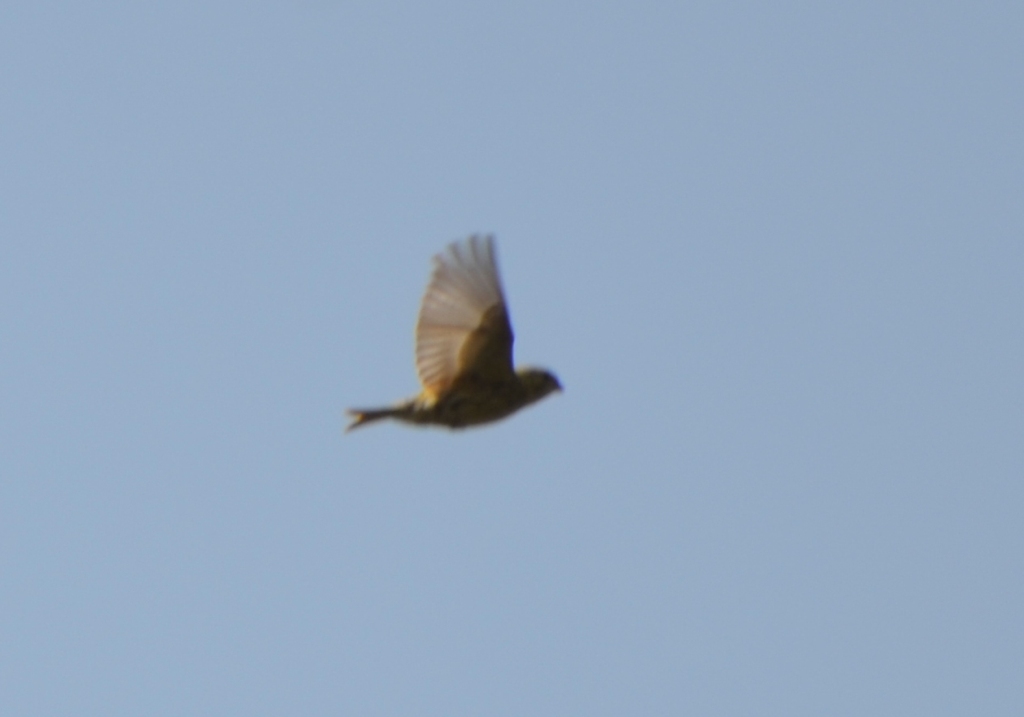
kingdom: Animalia
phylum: Chordata
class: Aves
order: Passeriformes
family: Fringillidae
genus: Serinus
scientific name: Serinus serinus
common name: European serin
